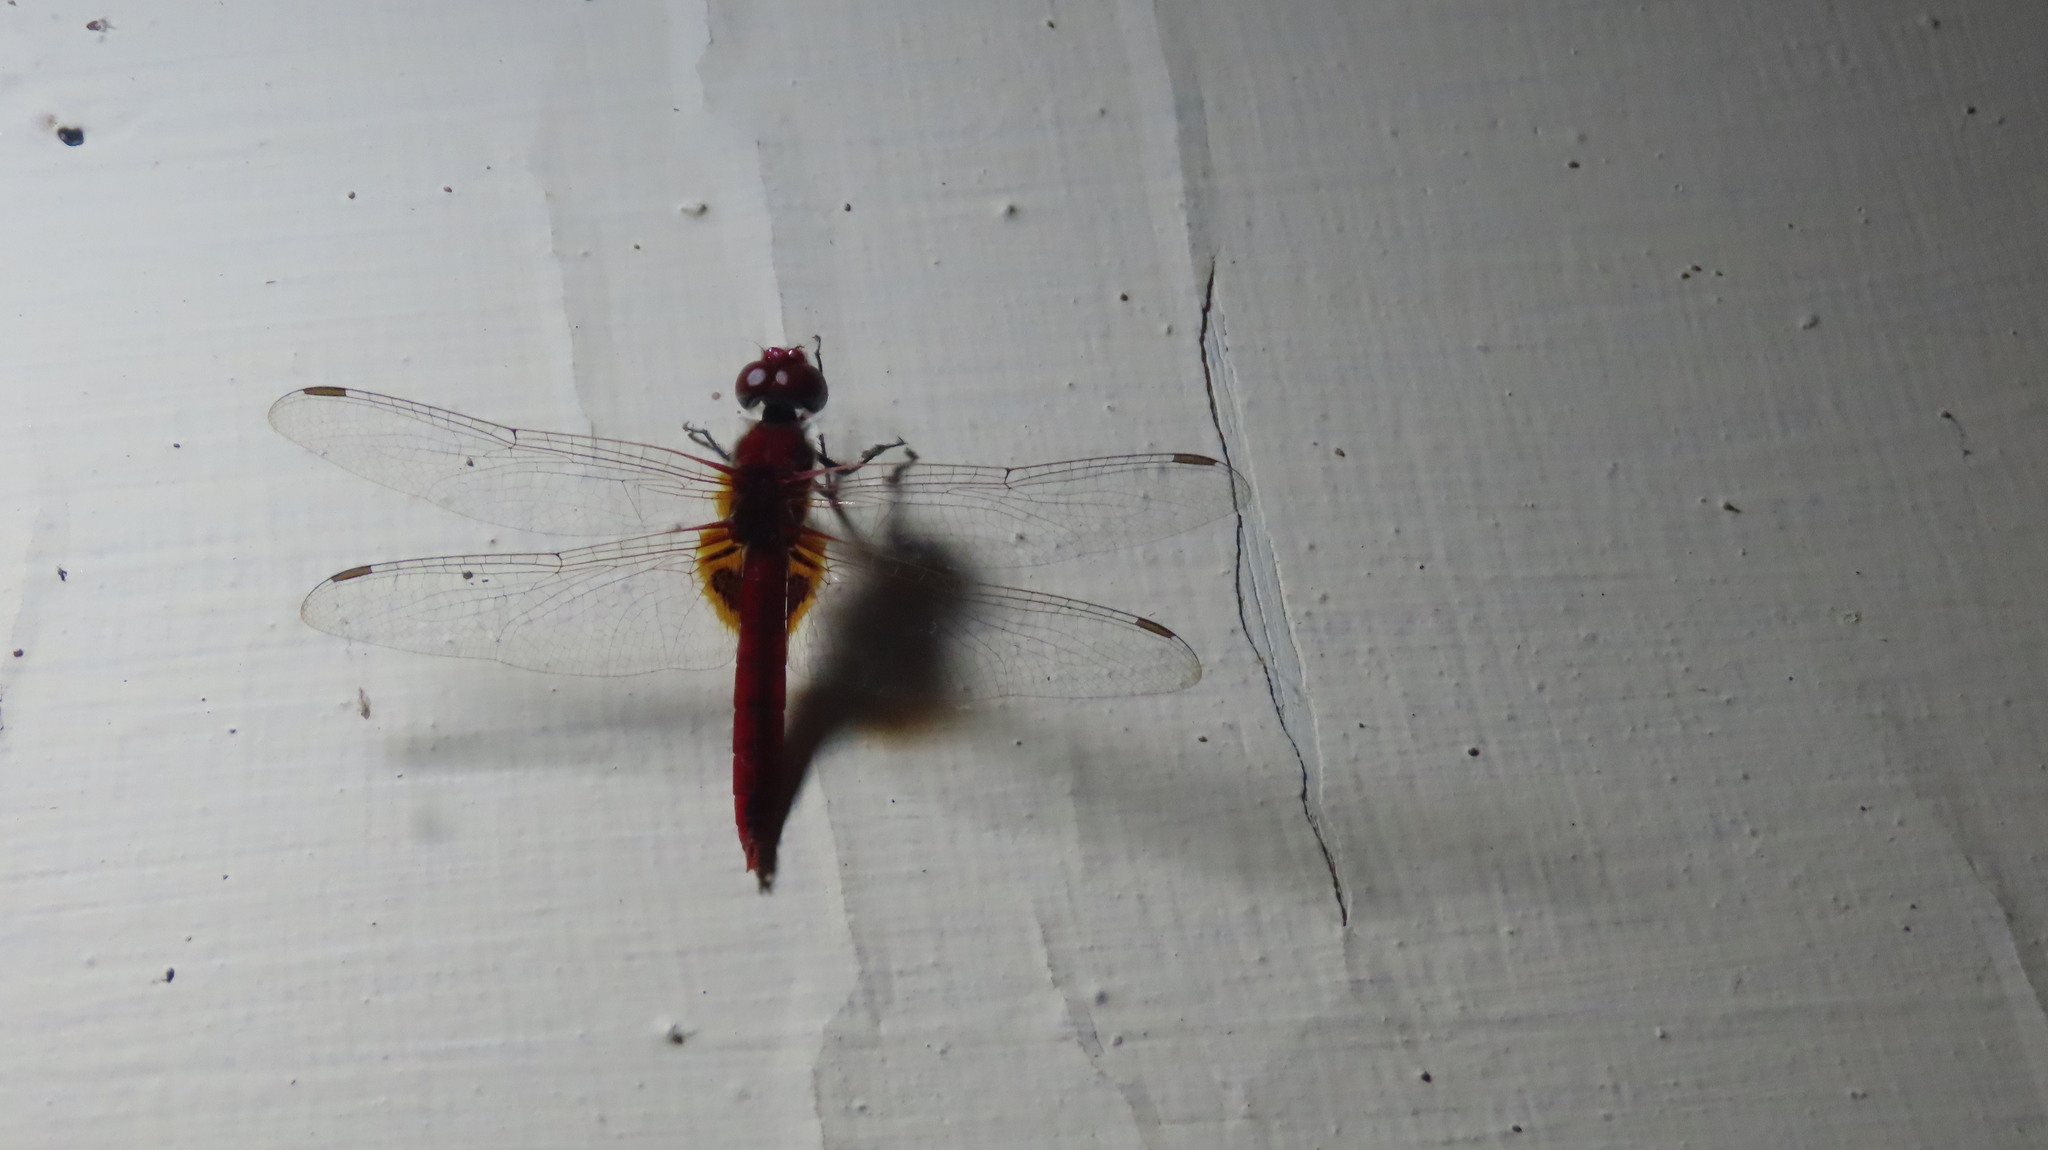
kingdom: Animalia
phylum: Arthropoda
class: Insecta
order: Odonata
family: Libellulidae
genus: Urothemis
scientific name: Urothemis signata
